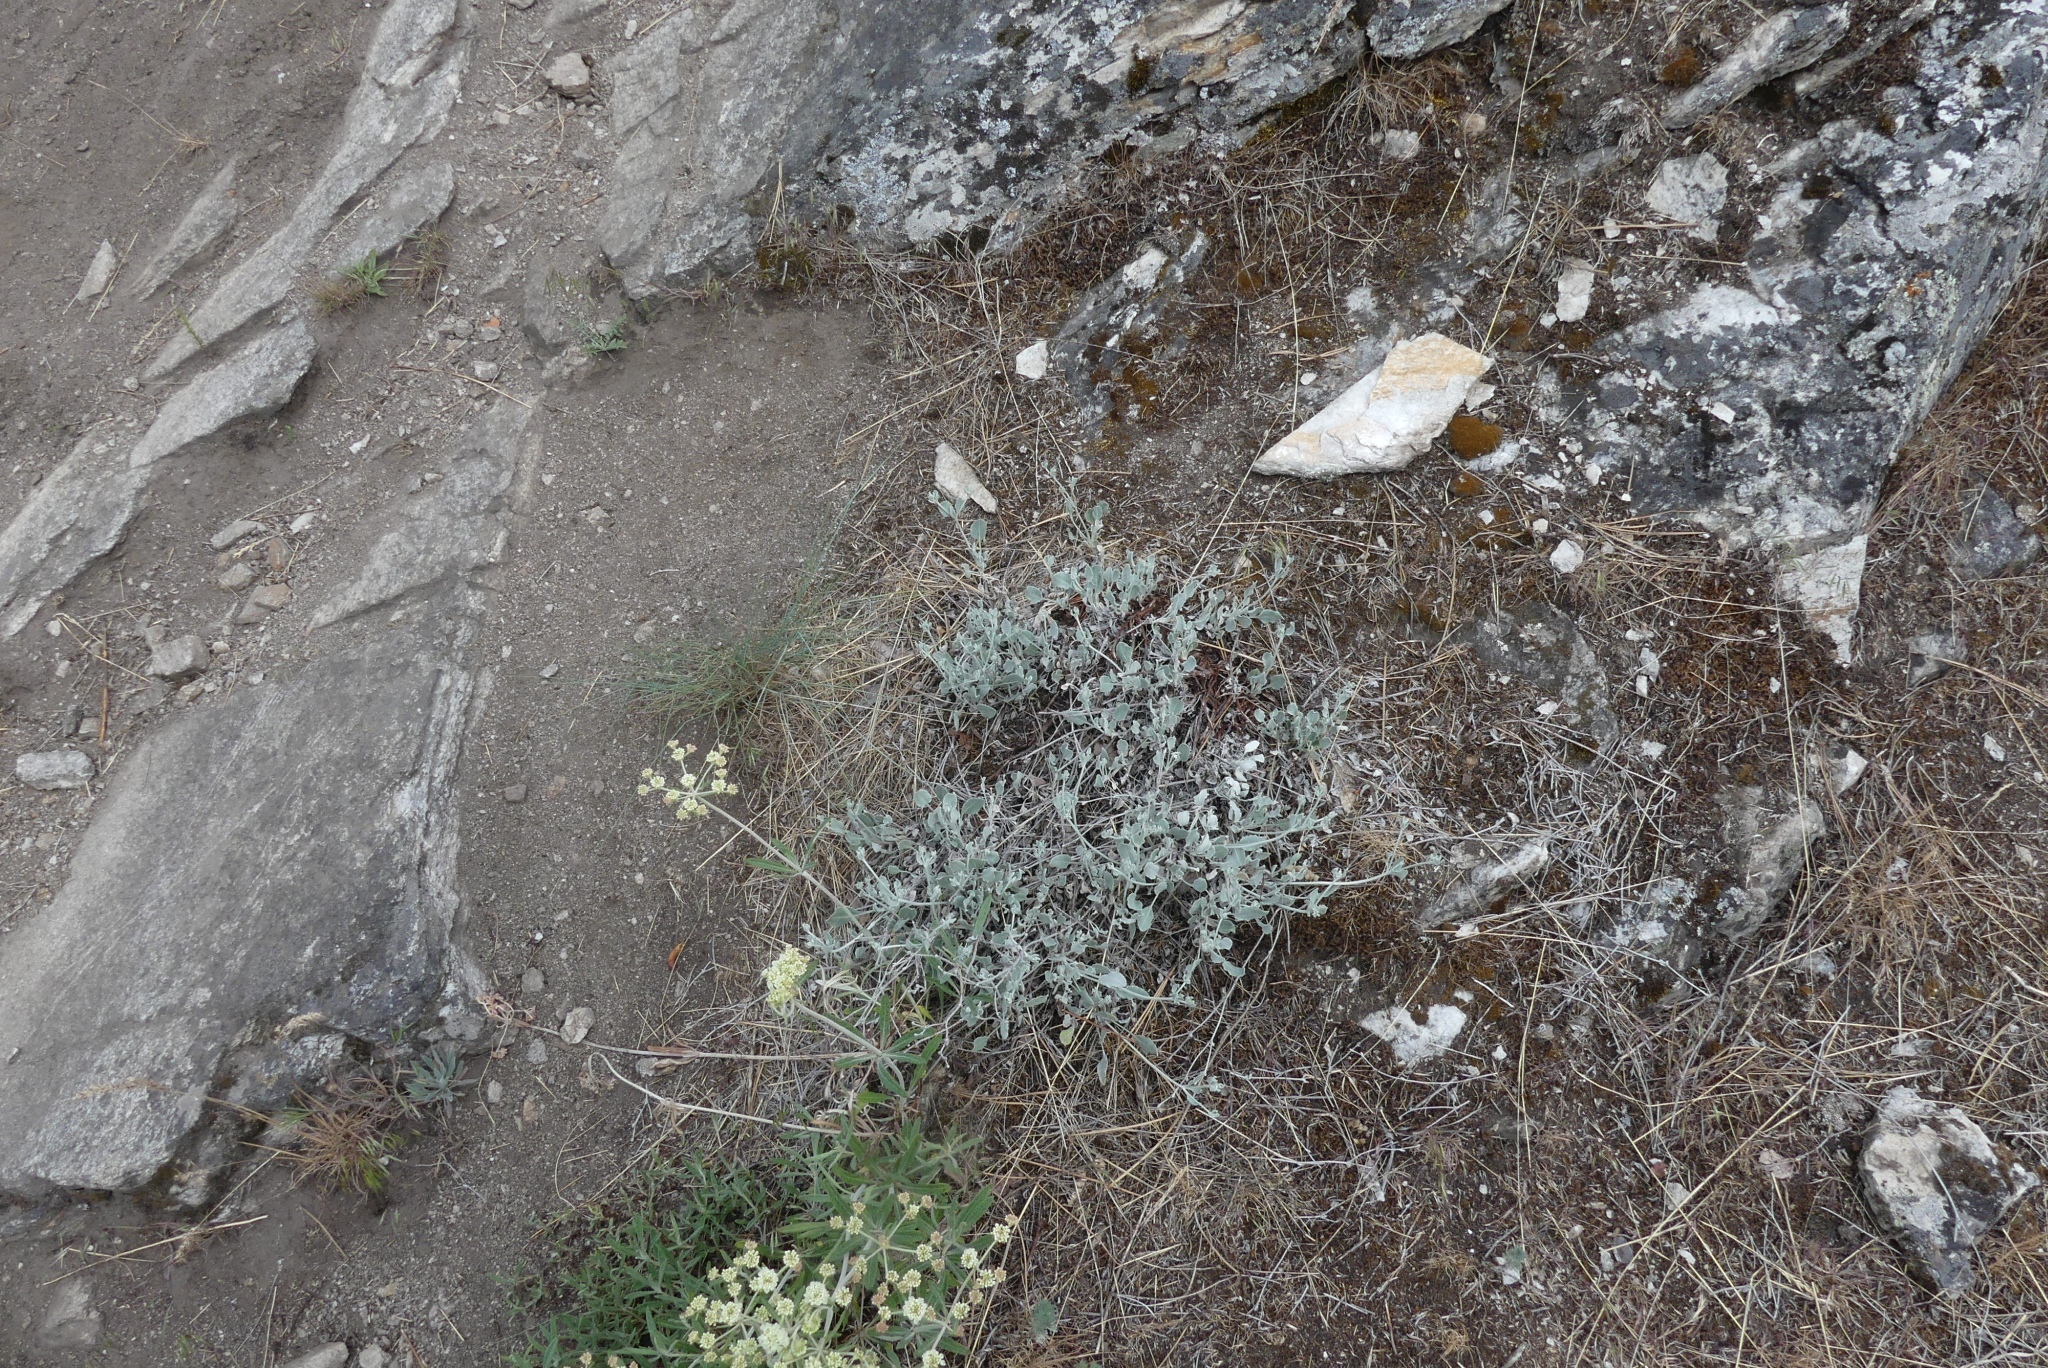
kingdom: Plantae
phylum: Tracheophyta
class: Magnoliopsida
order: Caryophyllales
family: Polygonaceae
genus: Eriogonum
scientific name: Eriogonum niveum
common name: Snow wild buckwheat
